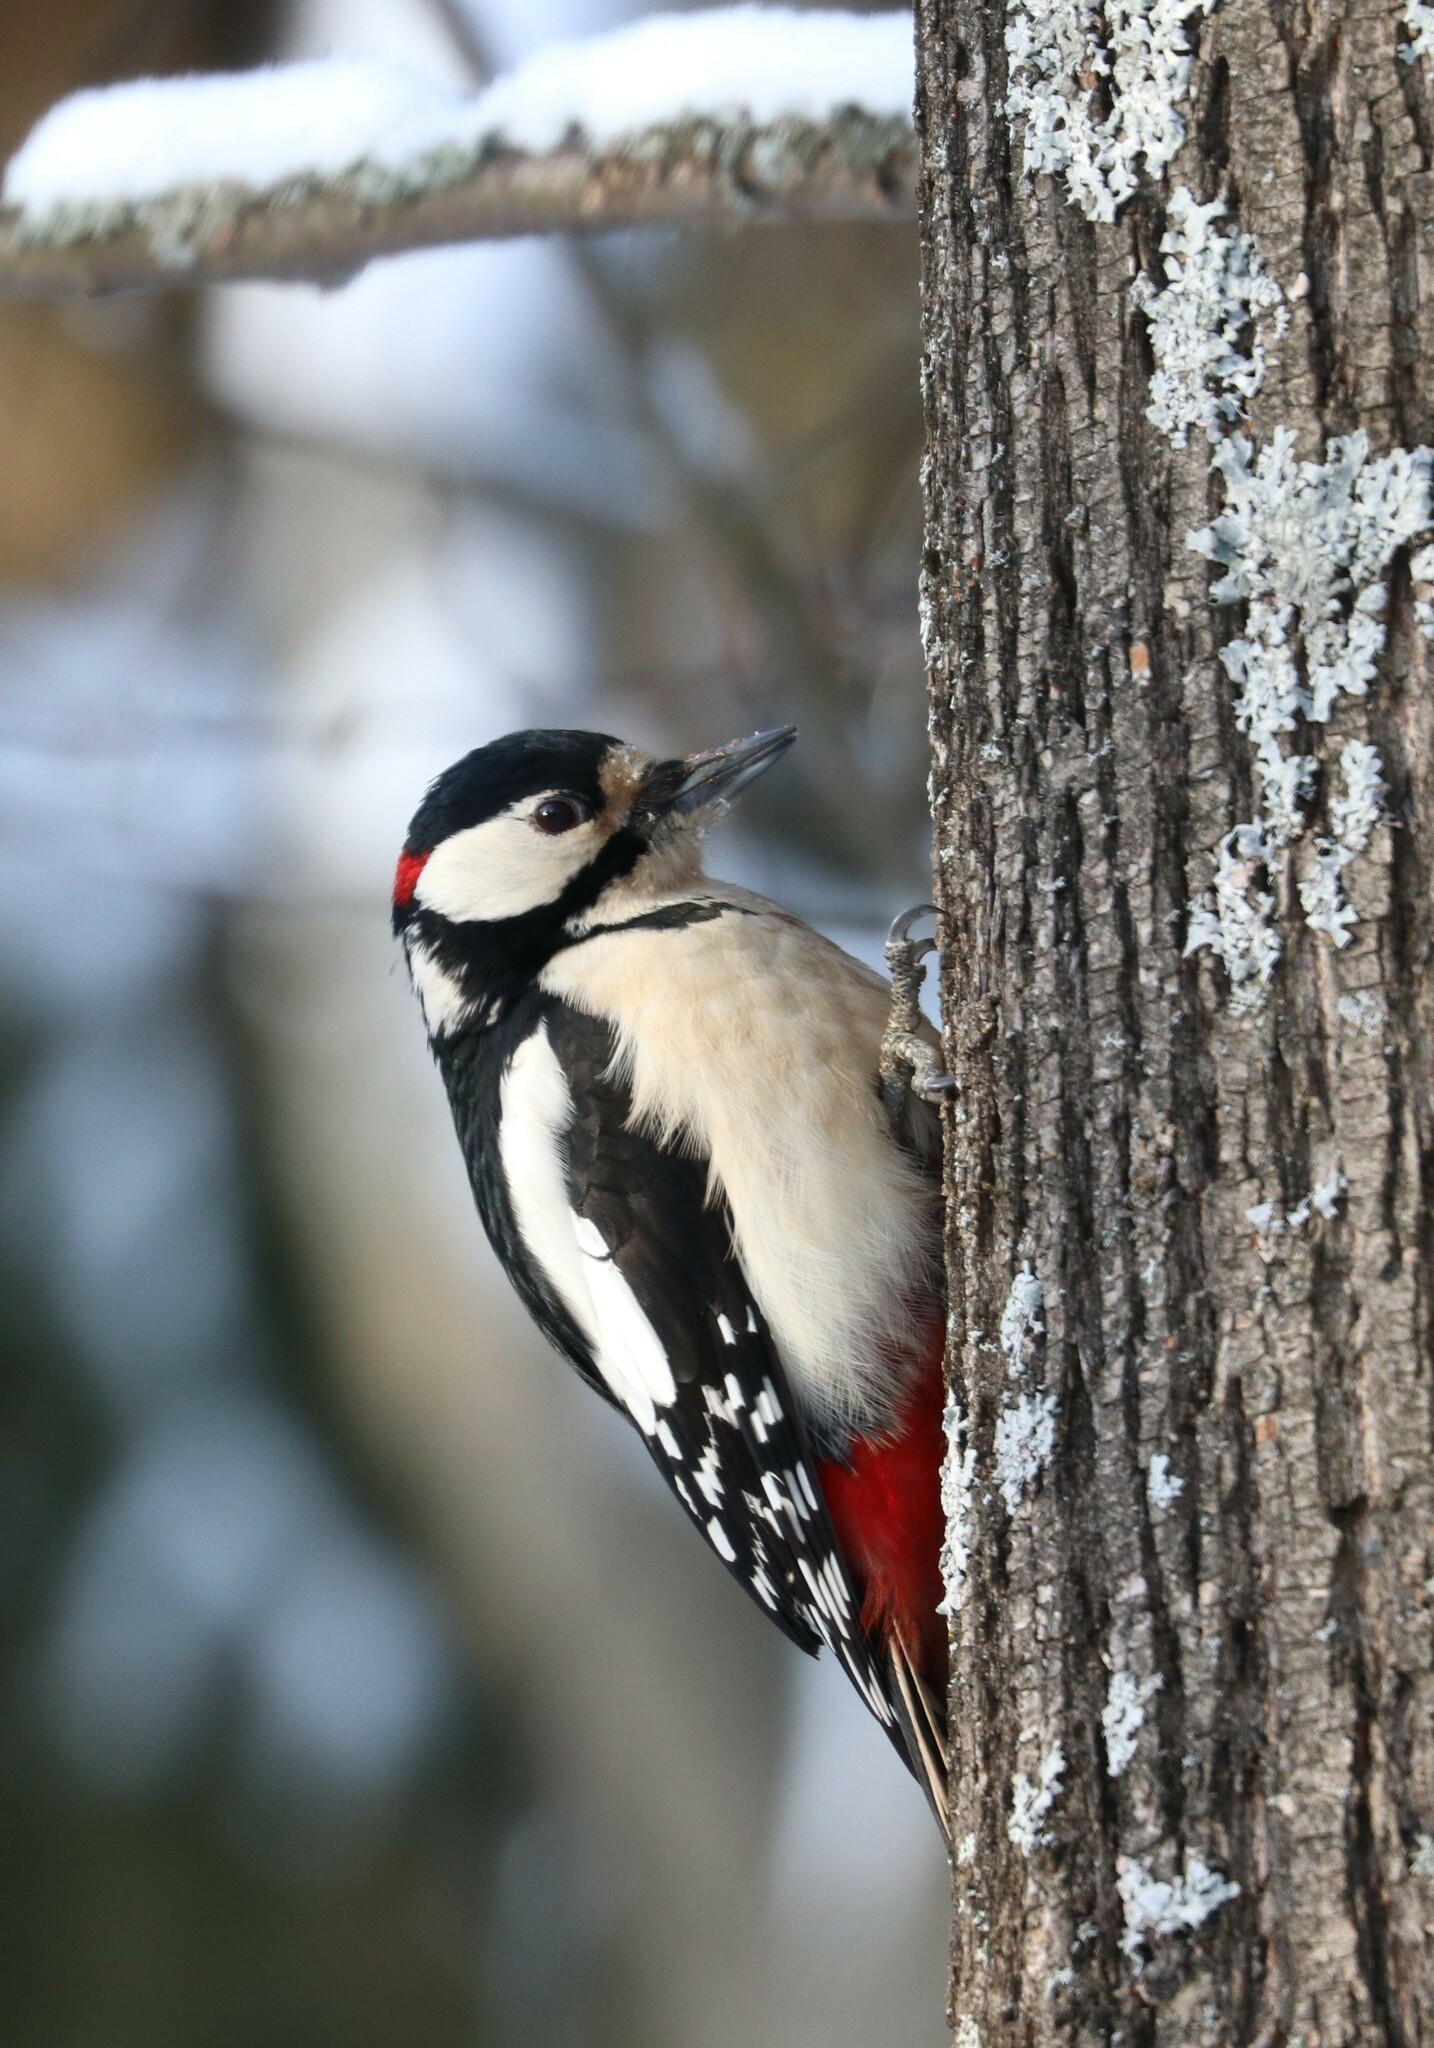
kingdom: Animalia
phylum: Chordata
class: Aves
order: Piciformes
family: Picidae
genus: Dendrocopos
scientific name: Dendrocopos major
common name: Great spotted woodpecker
